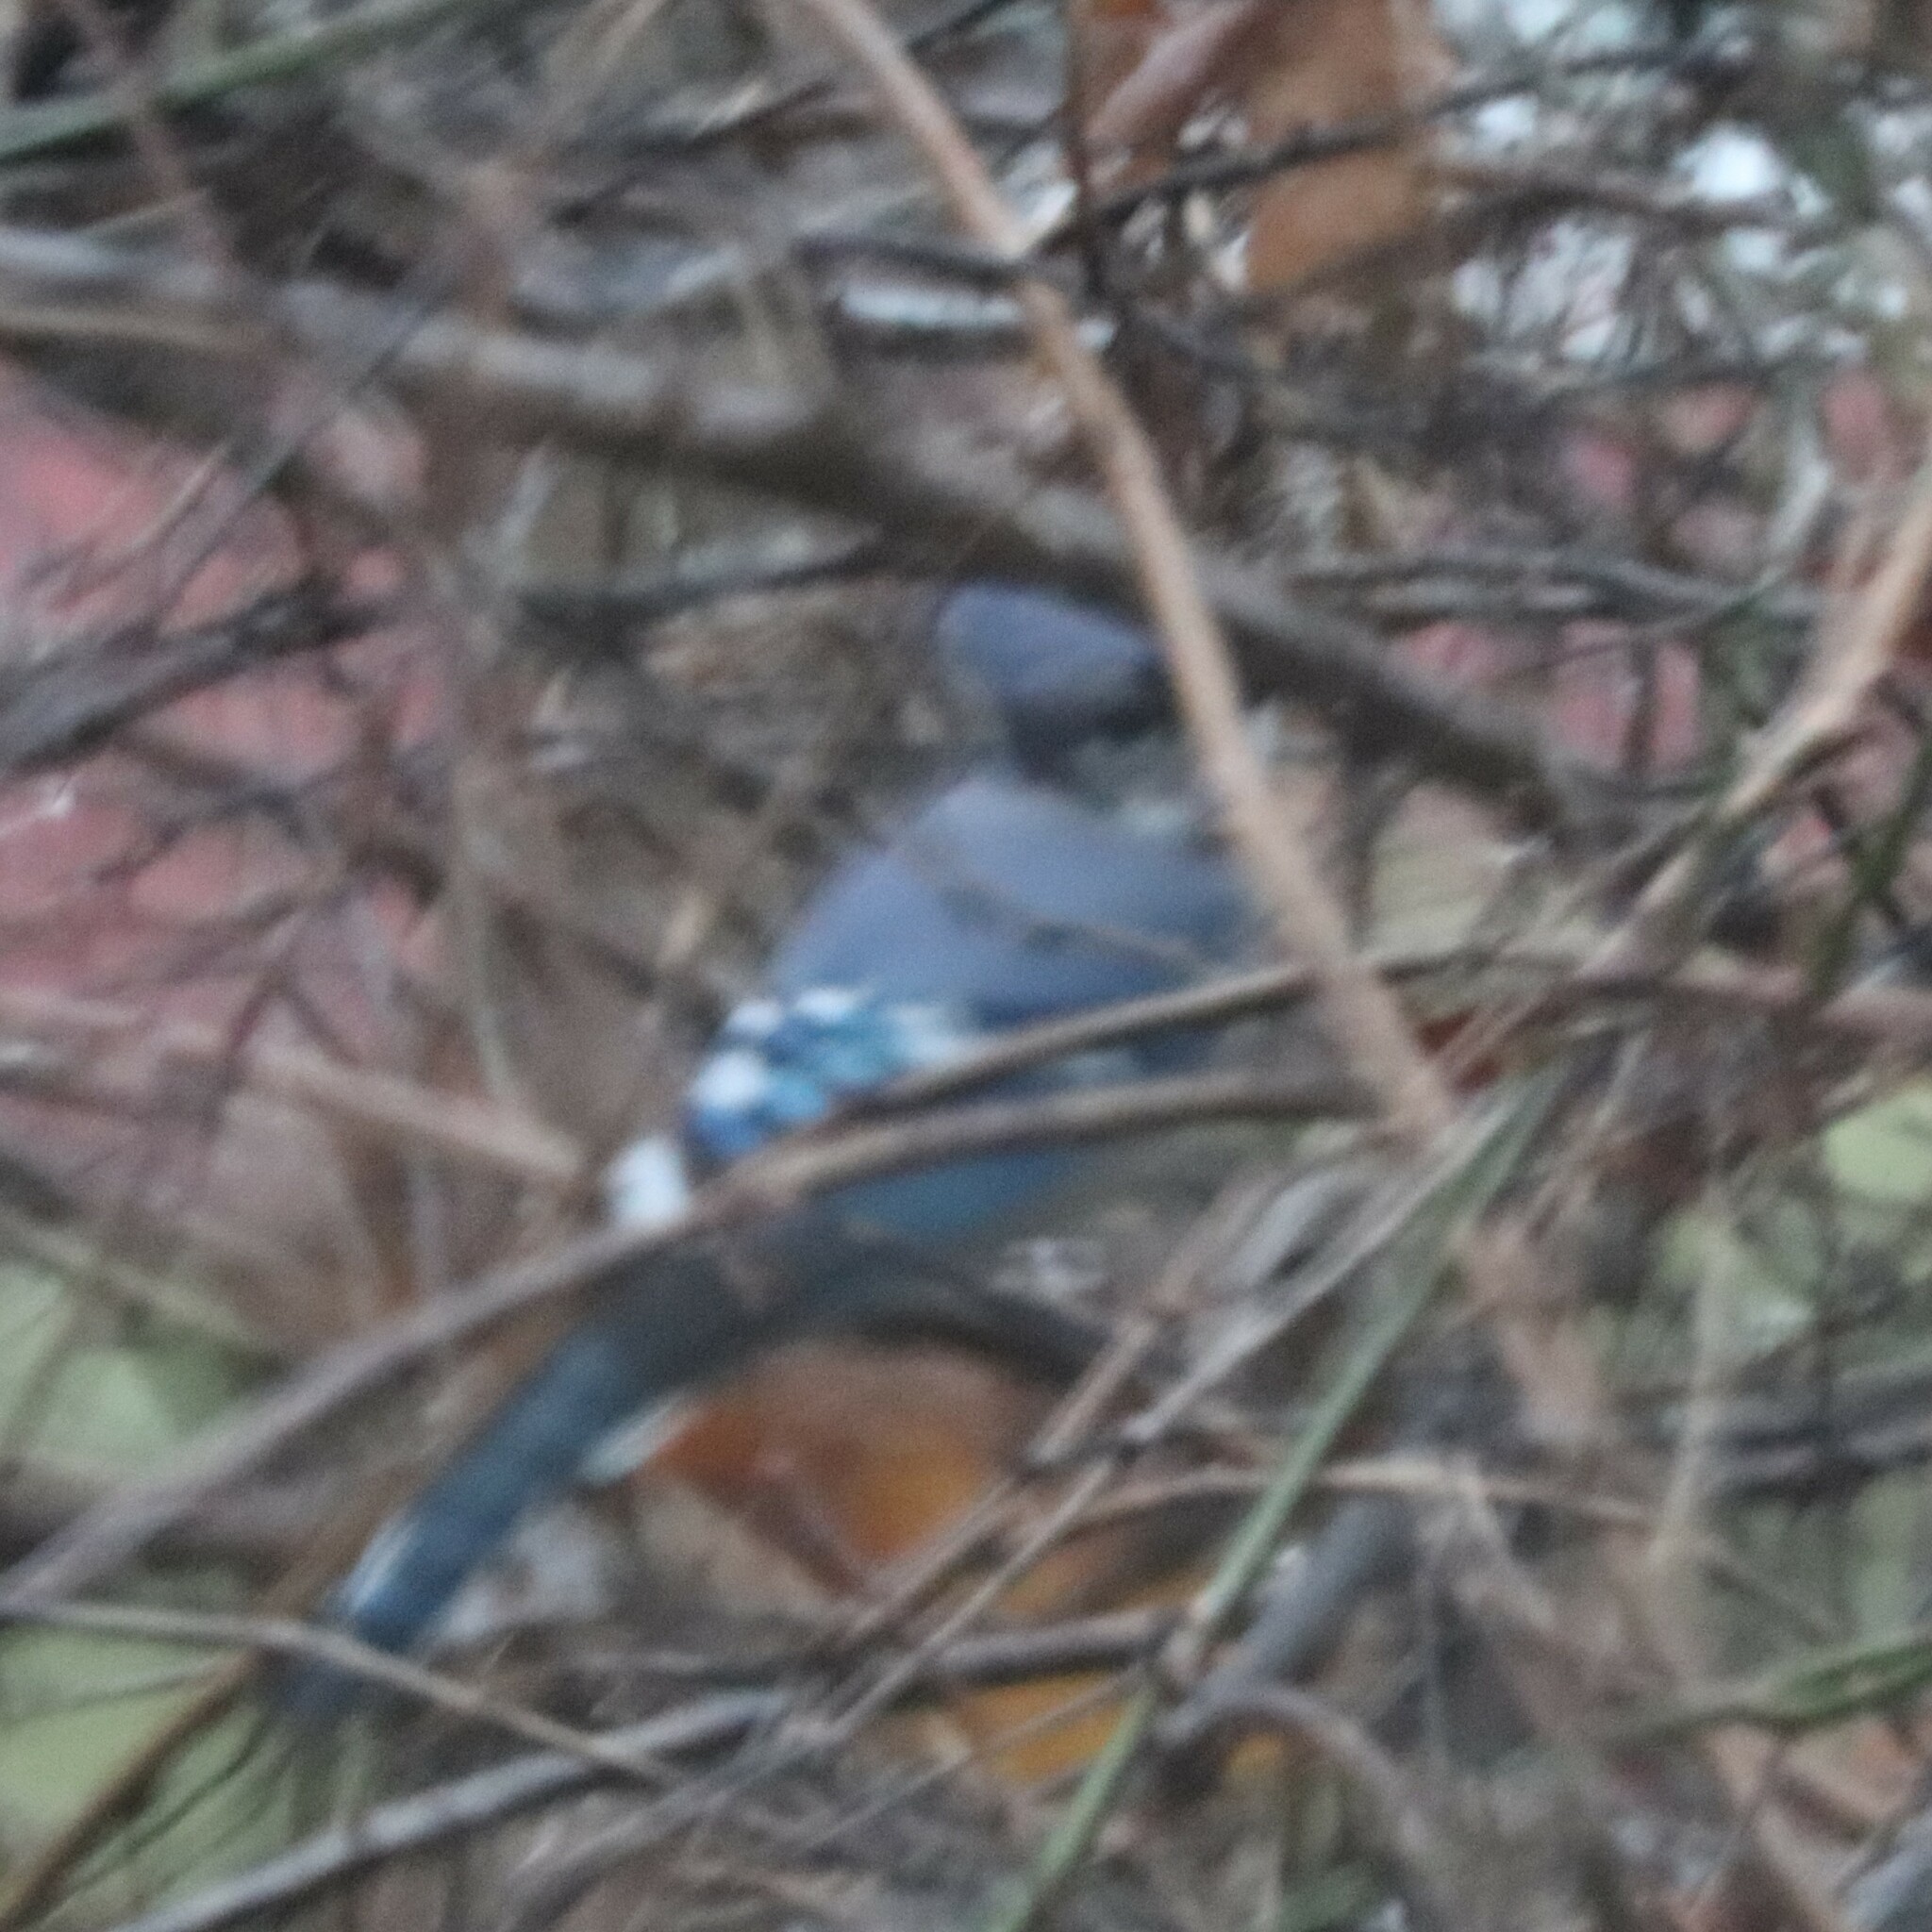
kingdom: Animalia
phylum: Chordata
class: Aves
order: Passeriformes
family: Corvidae
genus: Cyanocitta
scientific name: Cyanocitta cristata
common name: Blue jay
